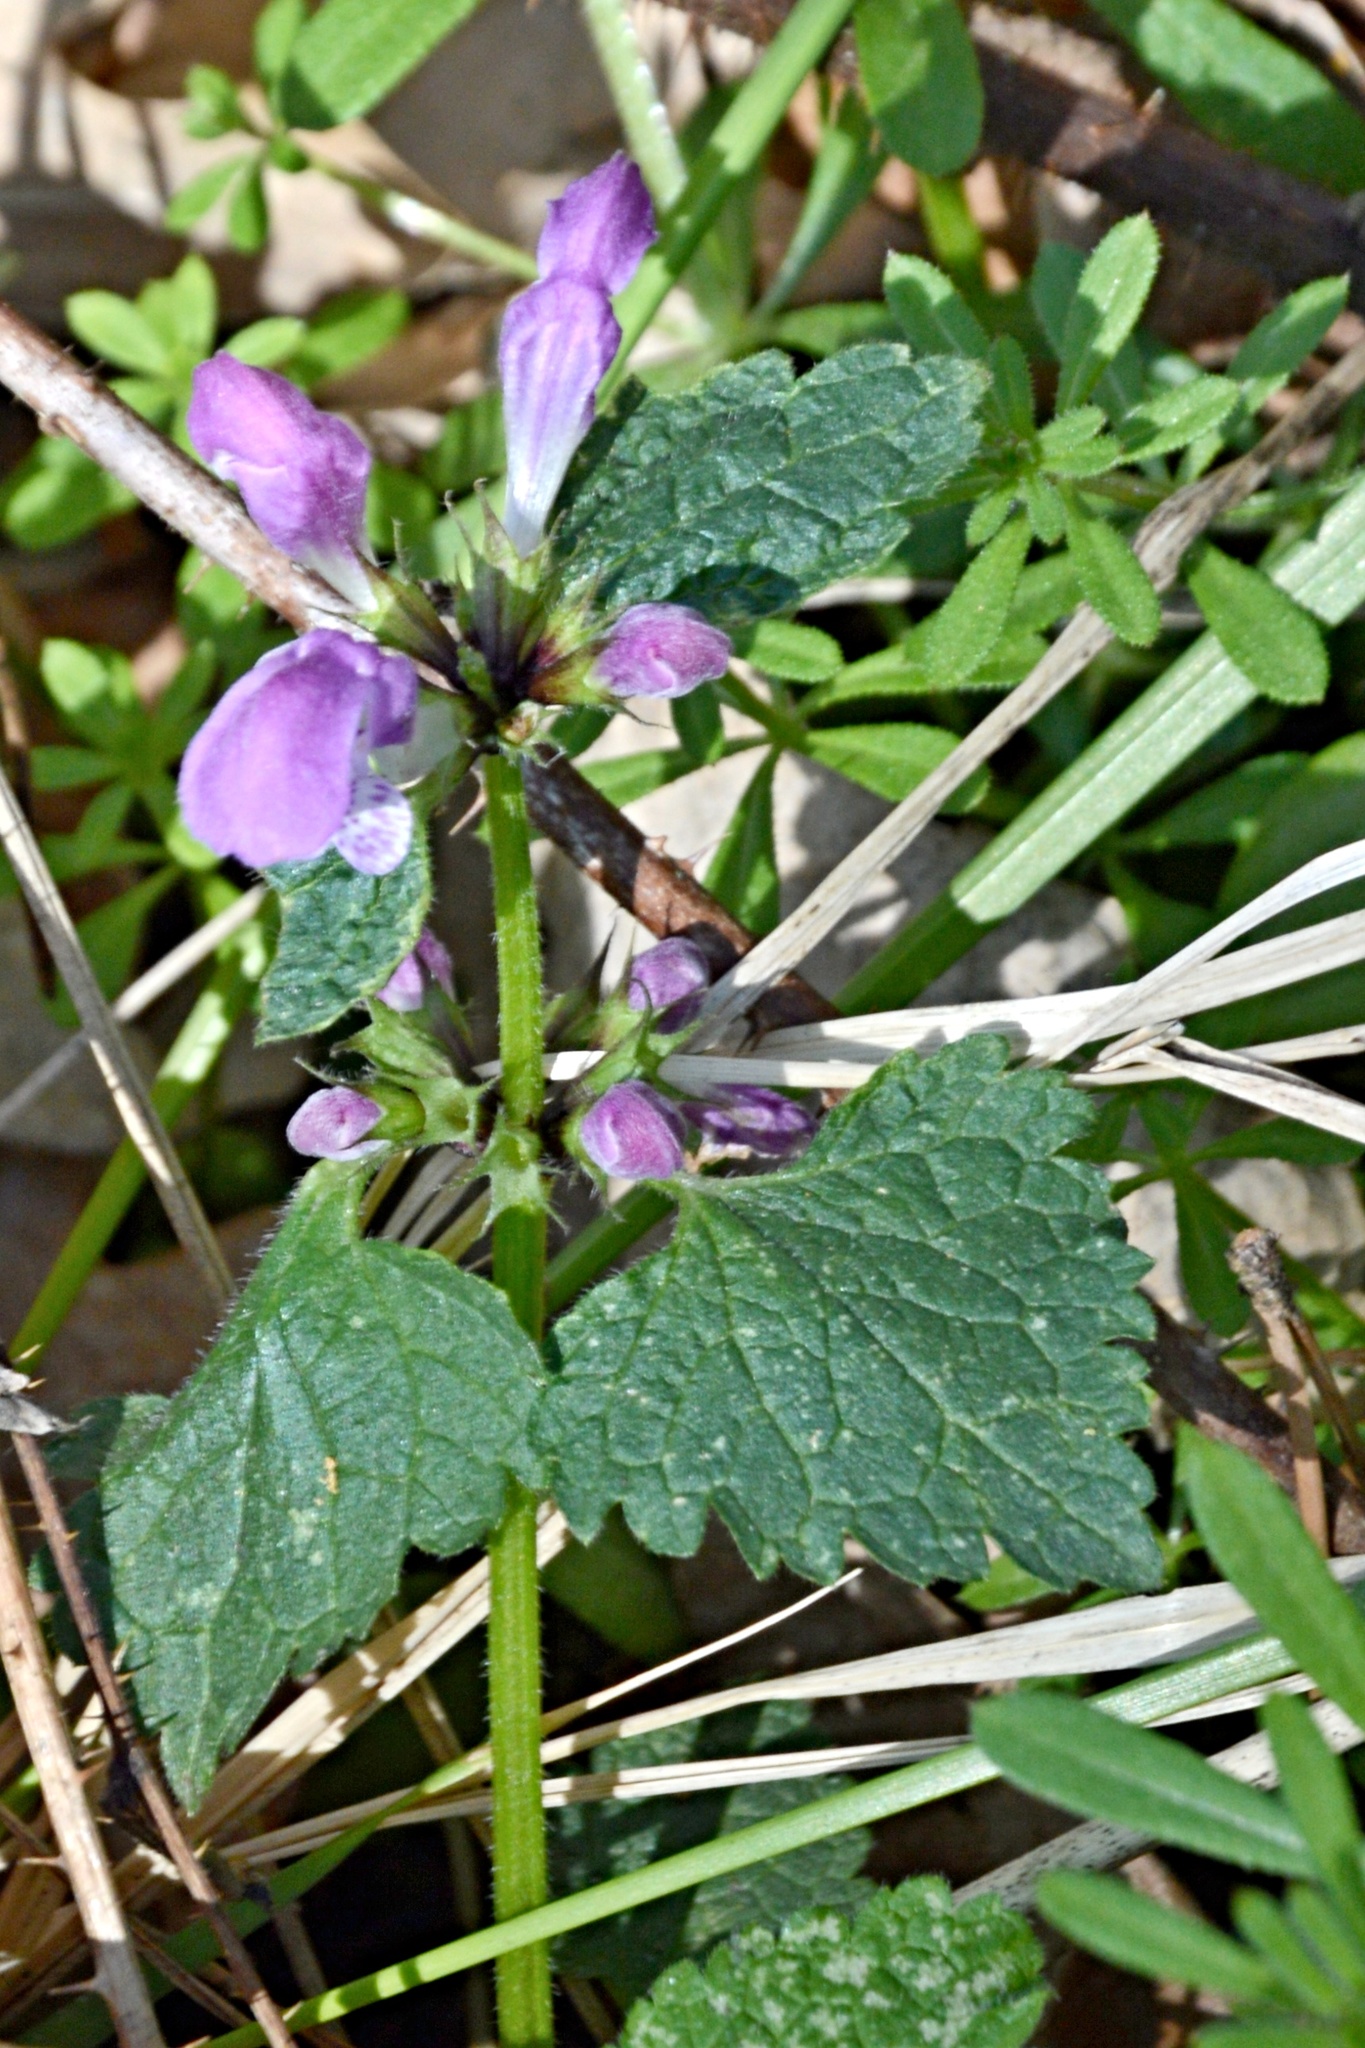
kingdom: Plantae
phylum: Tracheophyta
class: Magnoliopsida
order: Lamiales
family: Lamiaceae
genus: Lamium
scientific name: Lamium maculatum
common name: Spotted dead-nettle
